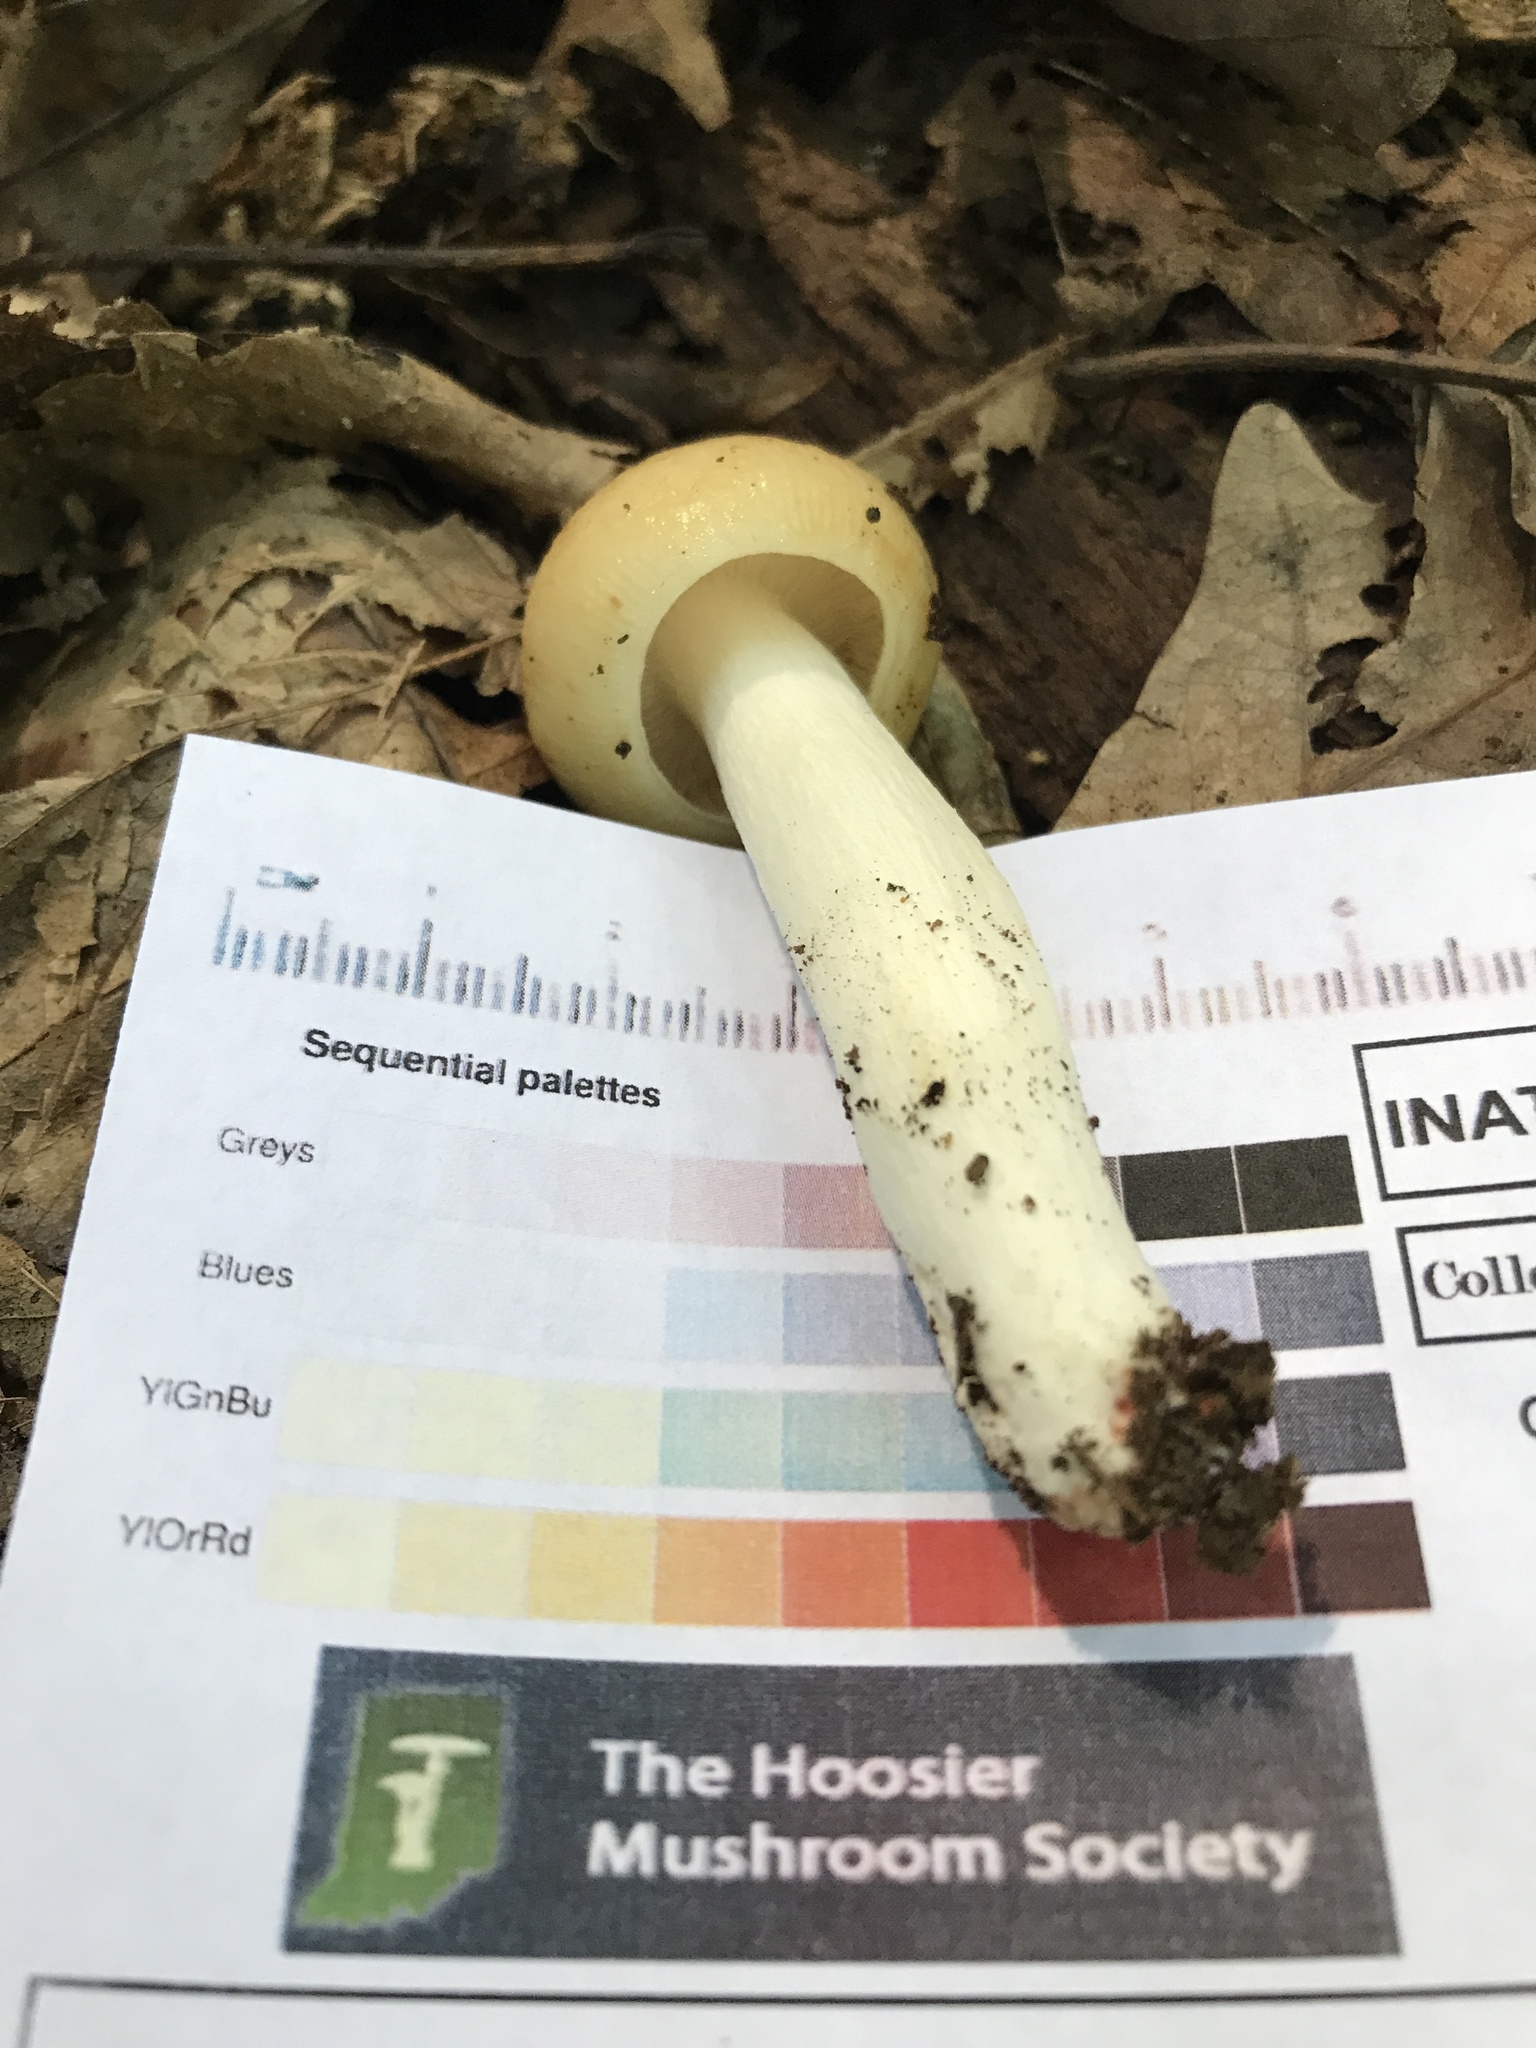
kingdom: Fungi
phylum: Basidiomycota
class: Agaricomycetes
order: Russulales
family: Russulaceae
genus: Russula
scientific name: Russula amerorecondita
